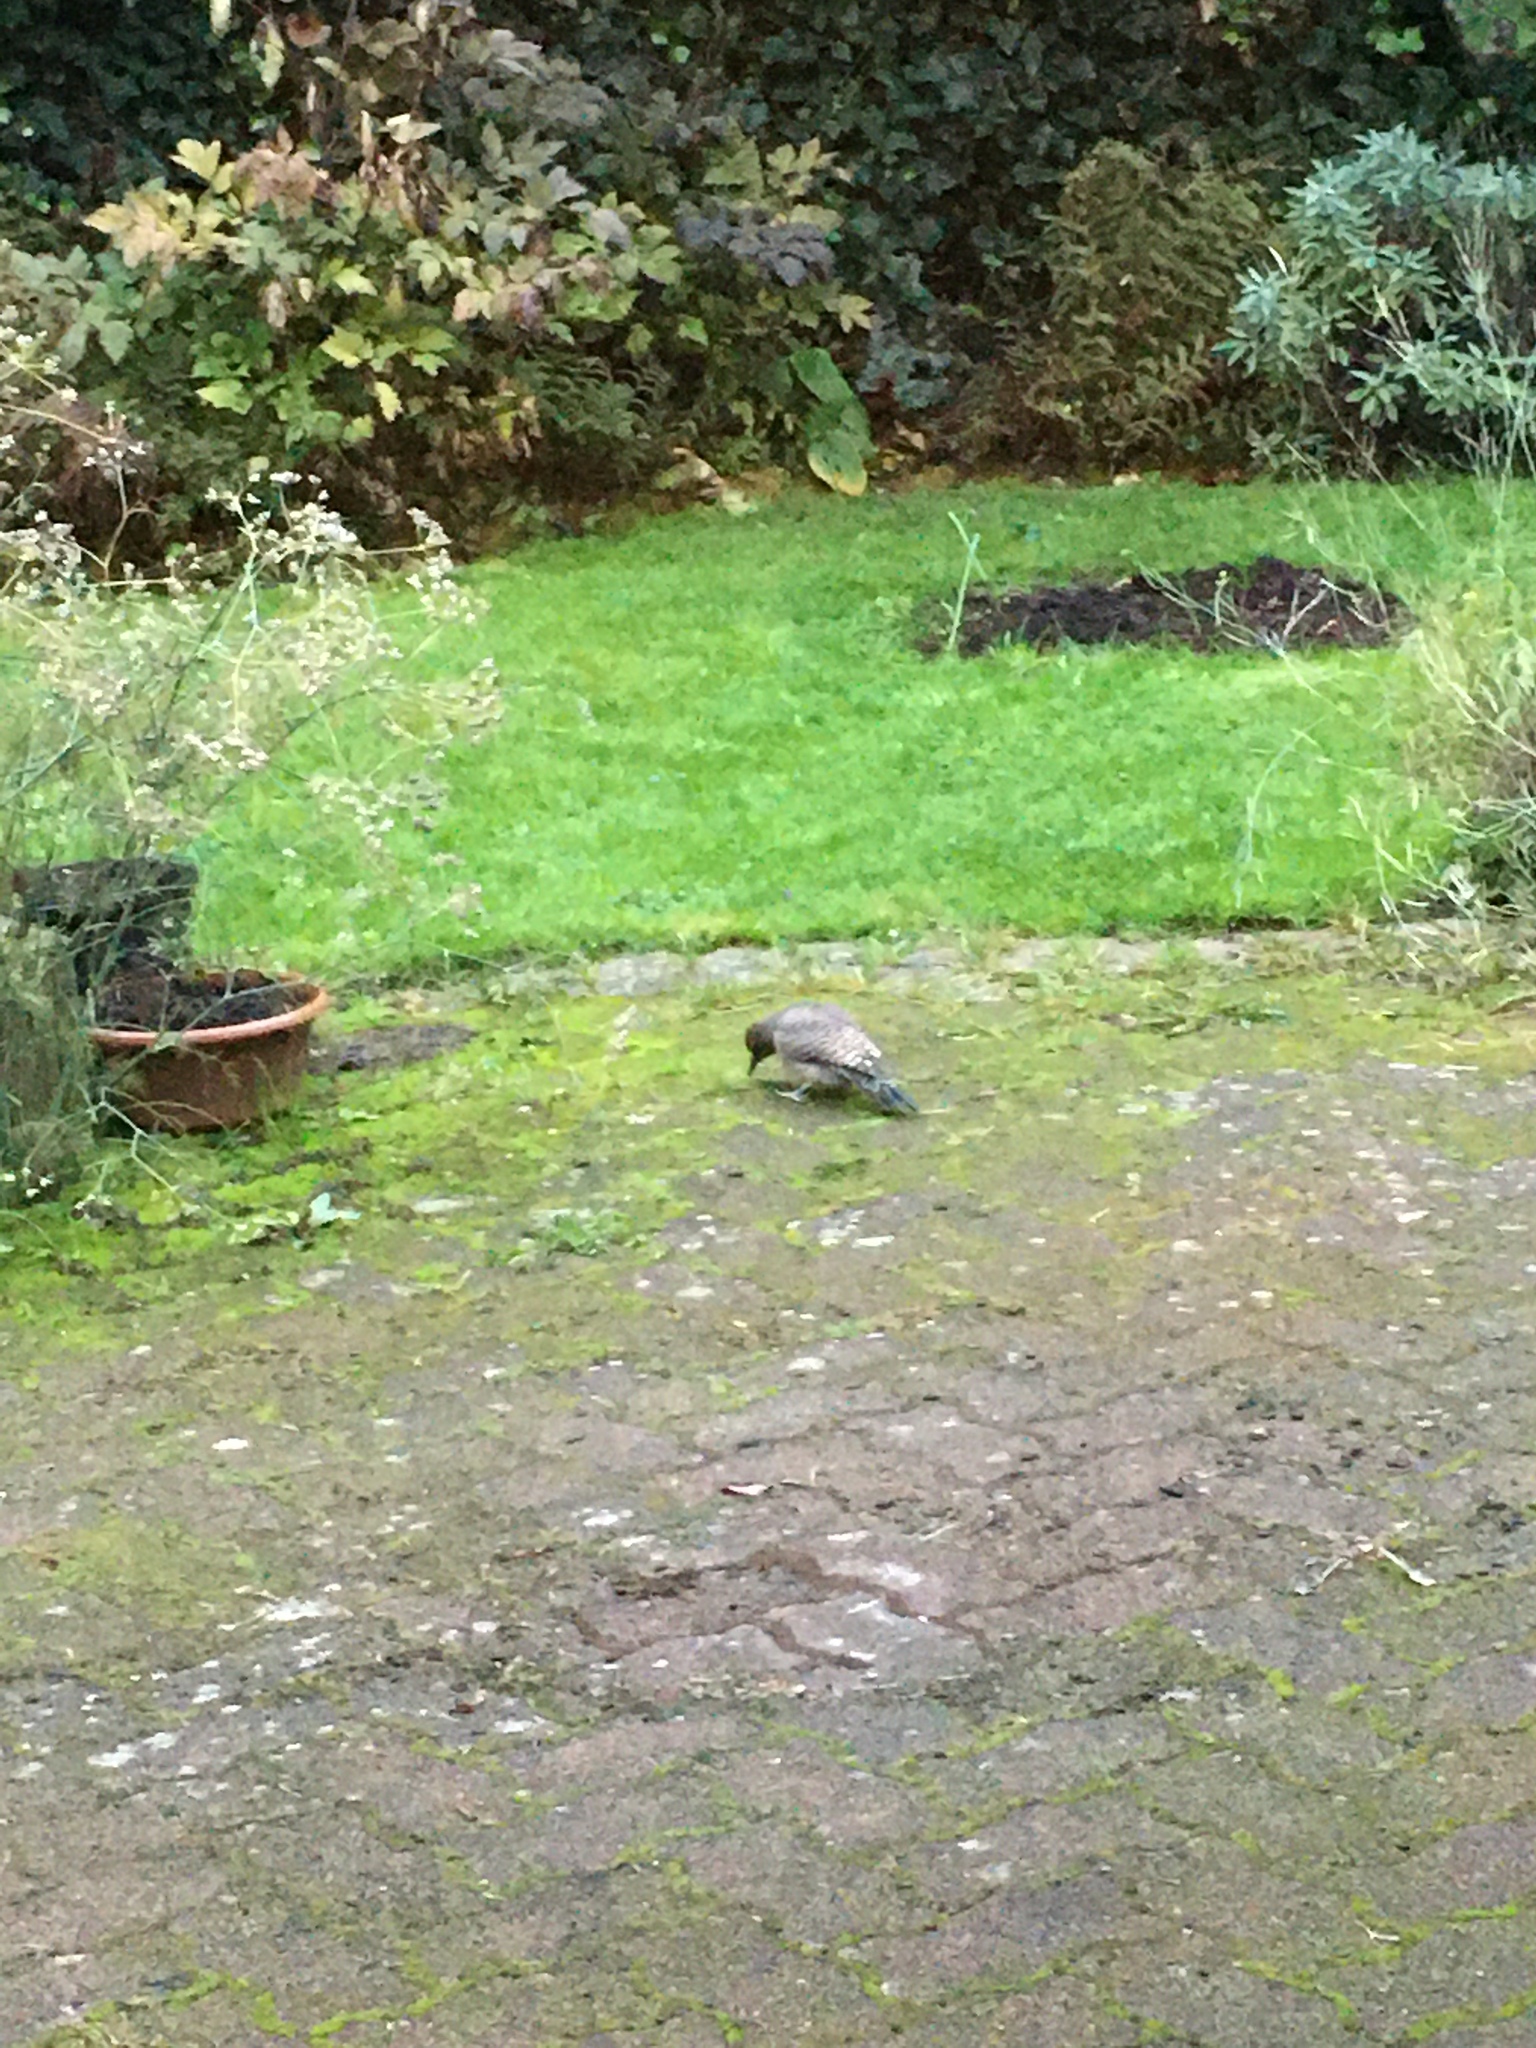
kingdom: Animalia
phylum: Chordata
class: Aves
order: Piciformes
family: Picidae
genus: Colaptes
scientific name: Colaptes auratus
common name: Northern flicker
